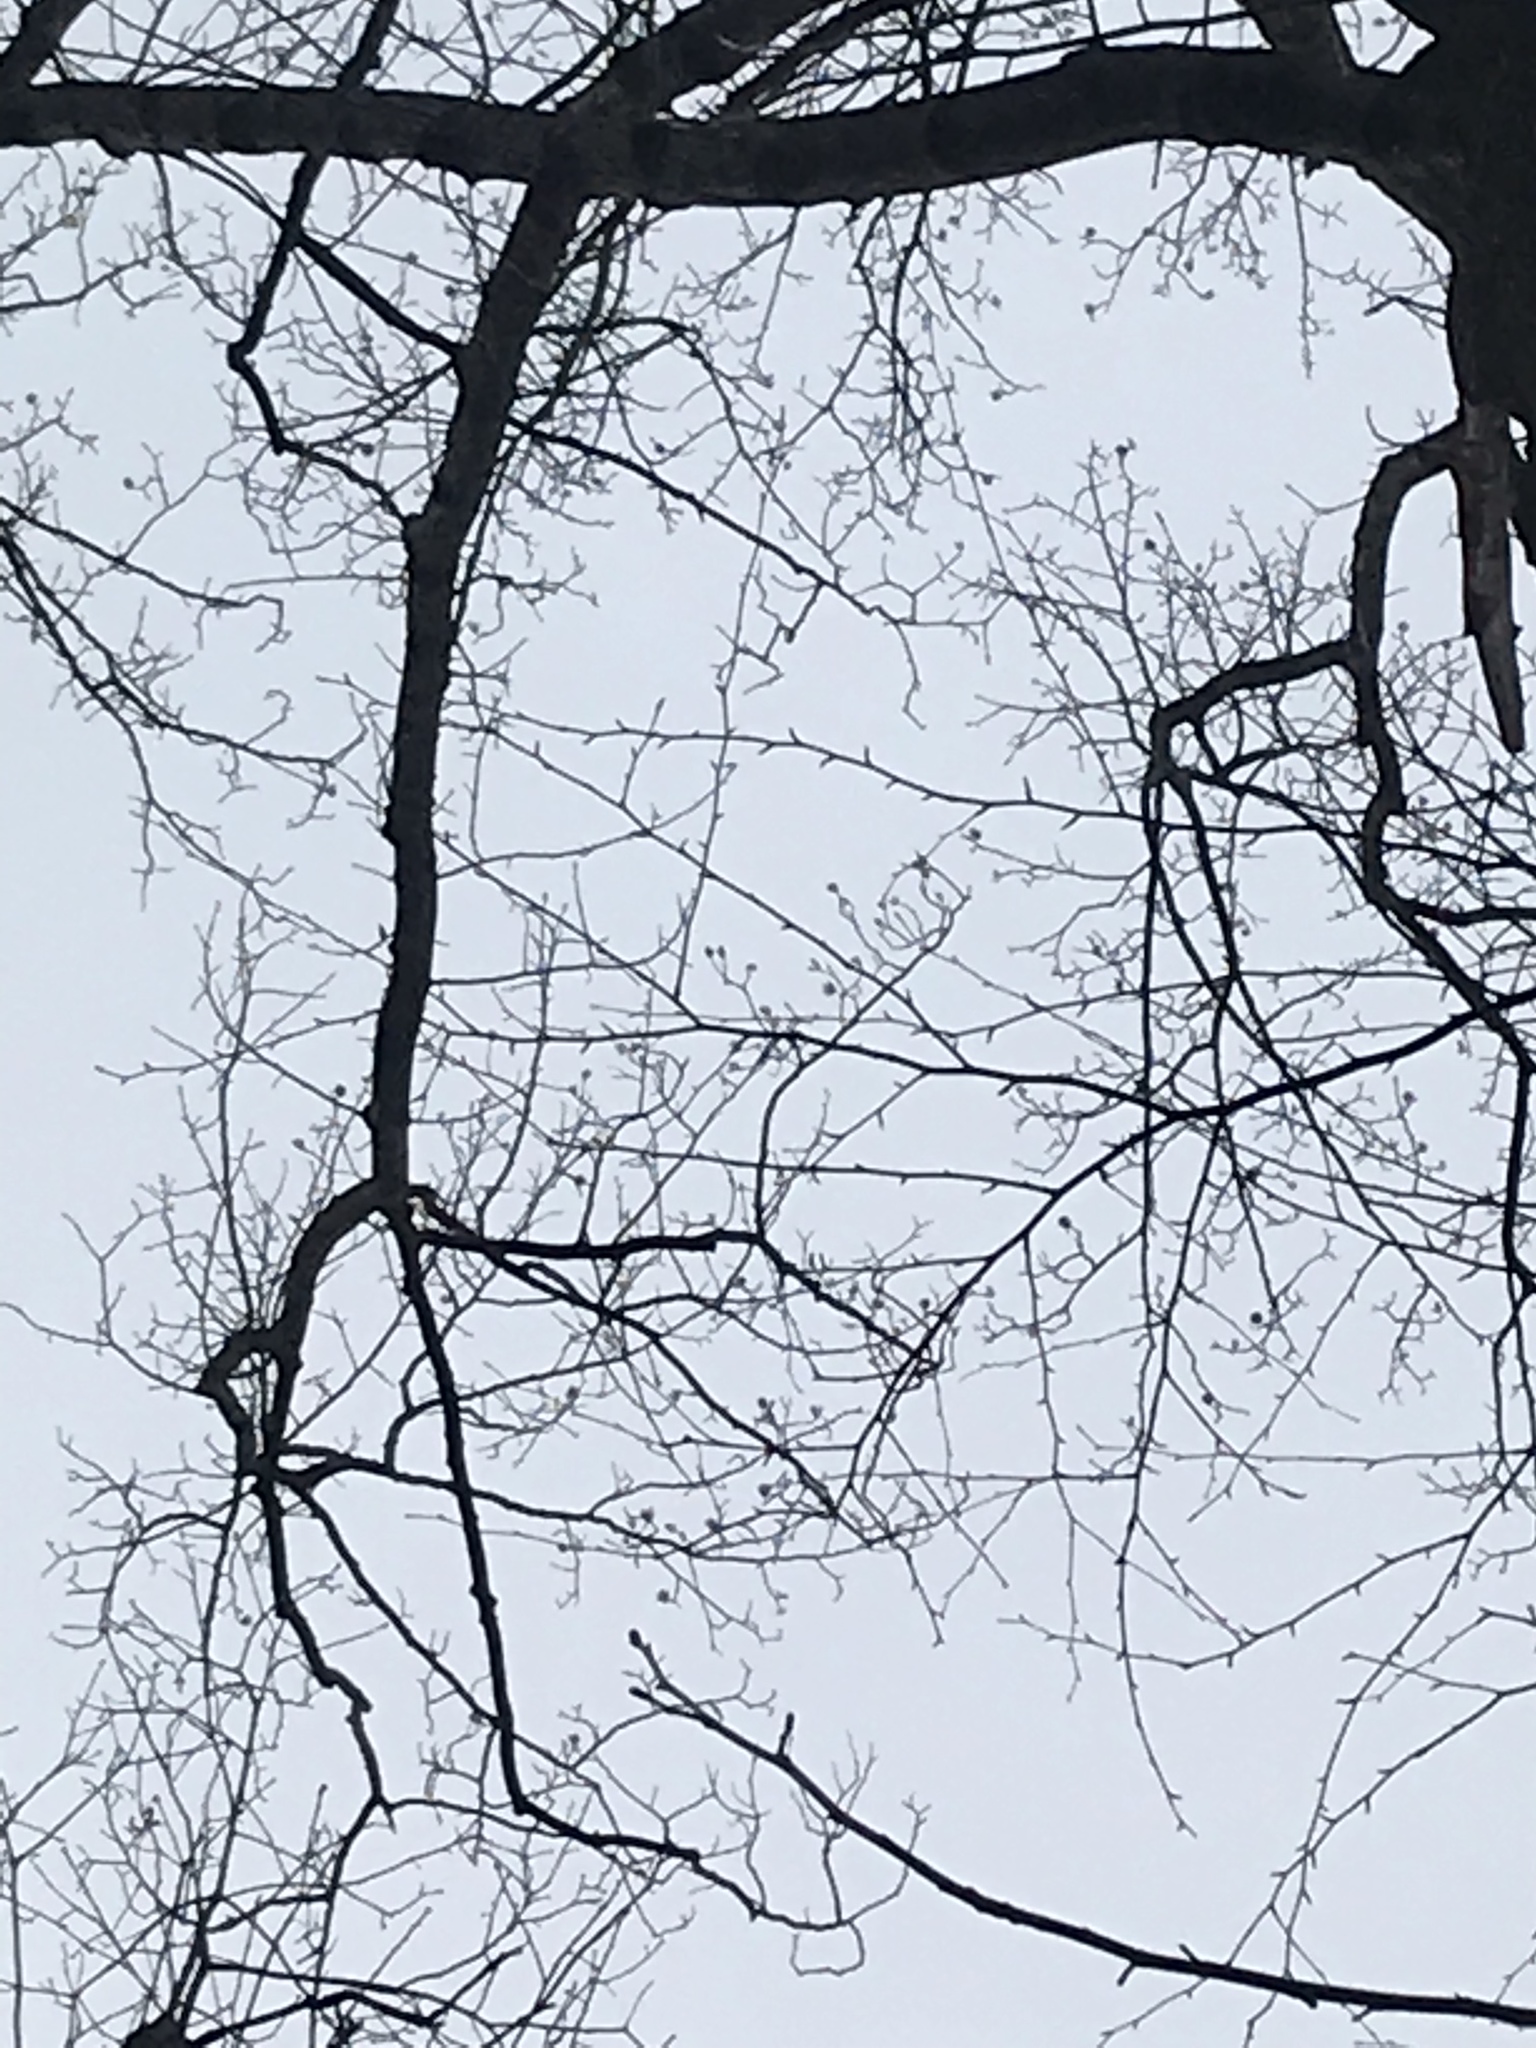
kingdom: Plantae
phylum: Tracheophyta
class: Magnoliopsida
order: Magnoliales
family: Magnoliaceae
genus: Liriodendron
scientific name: Liriodendron tulipifera
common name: Tulip tree
